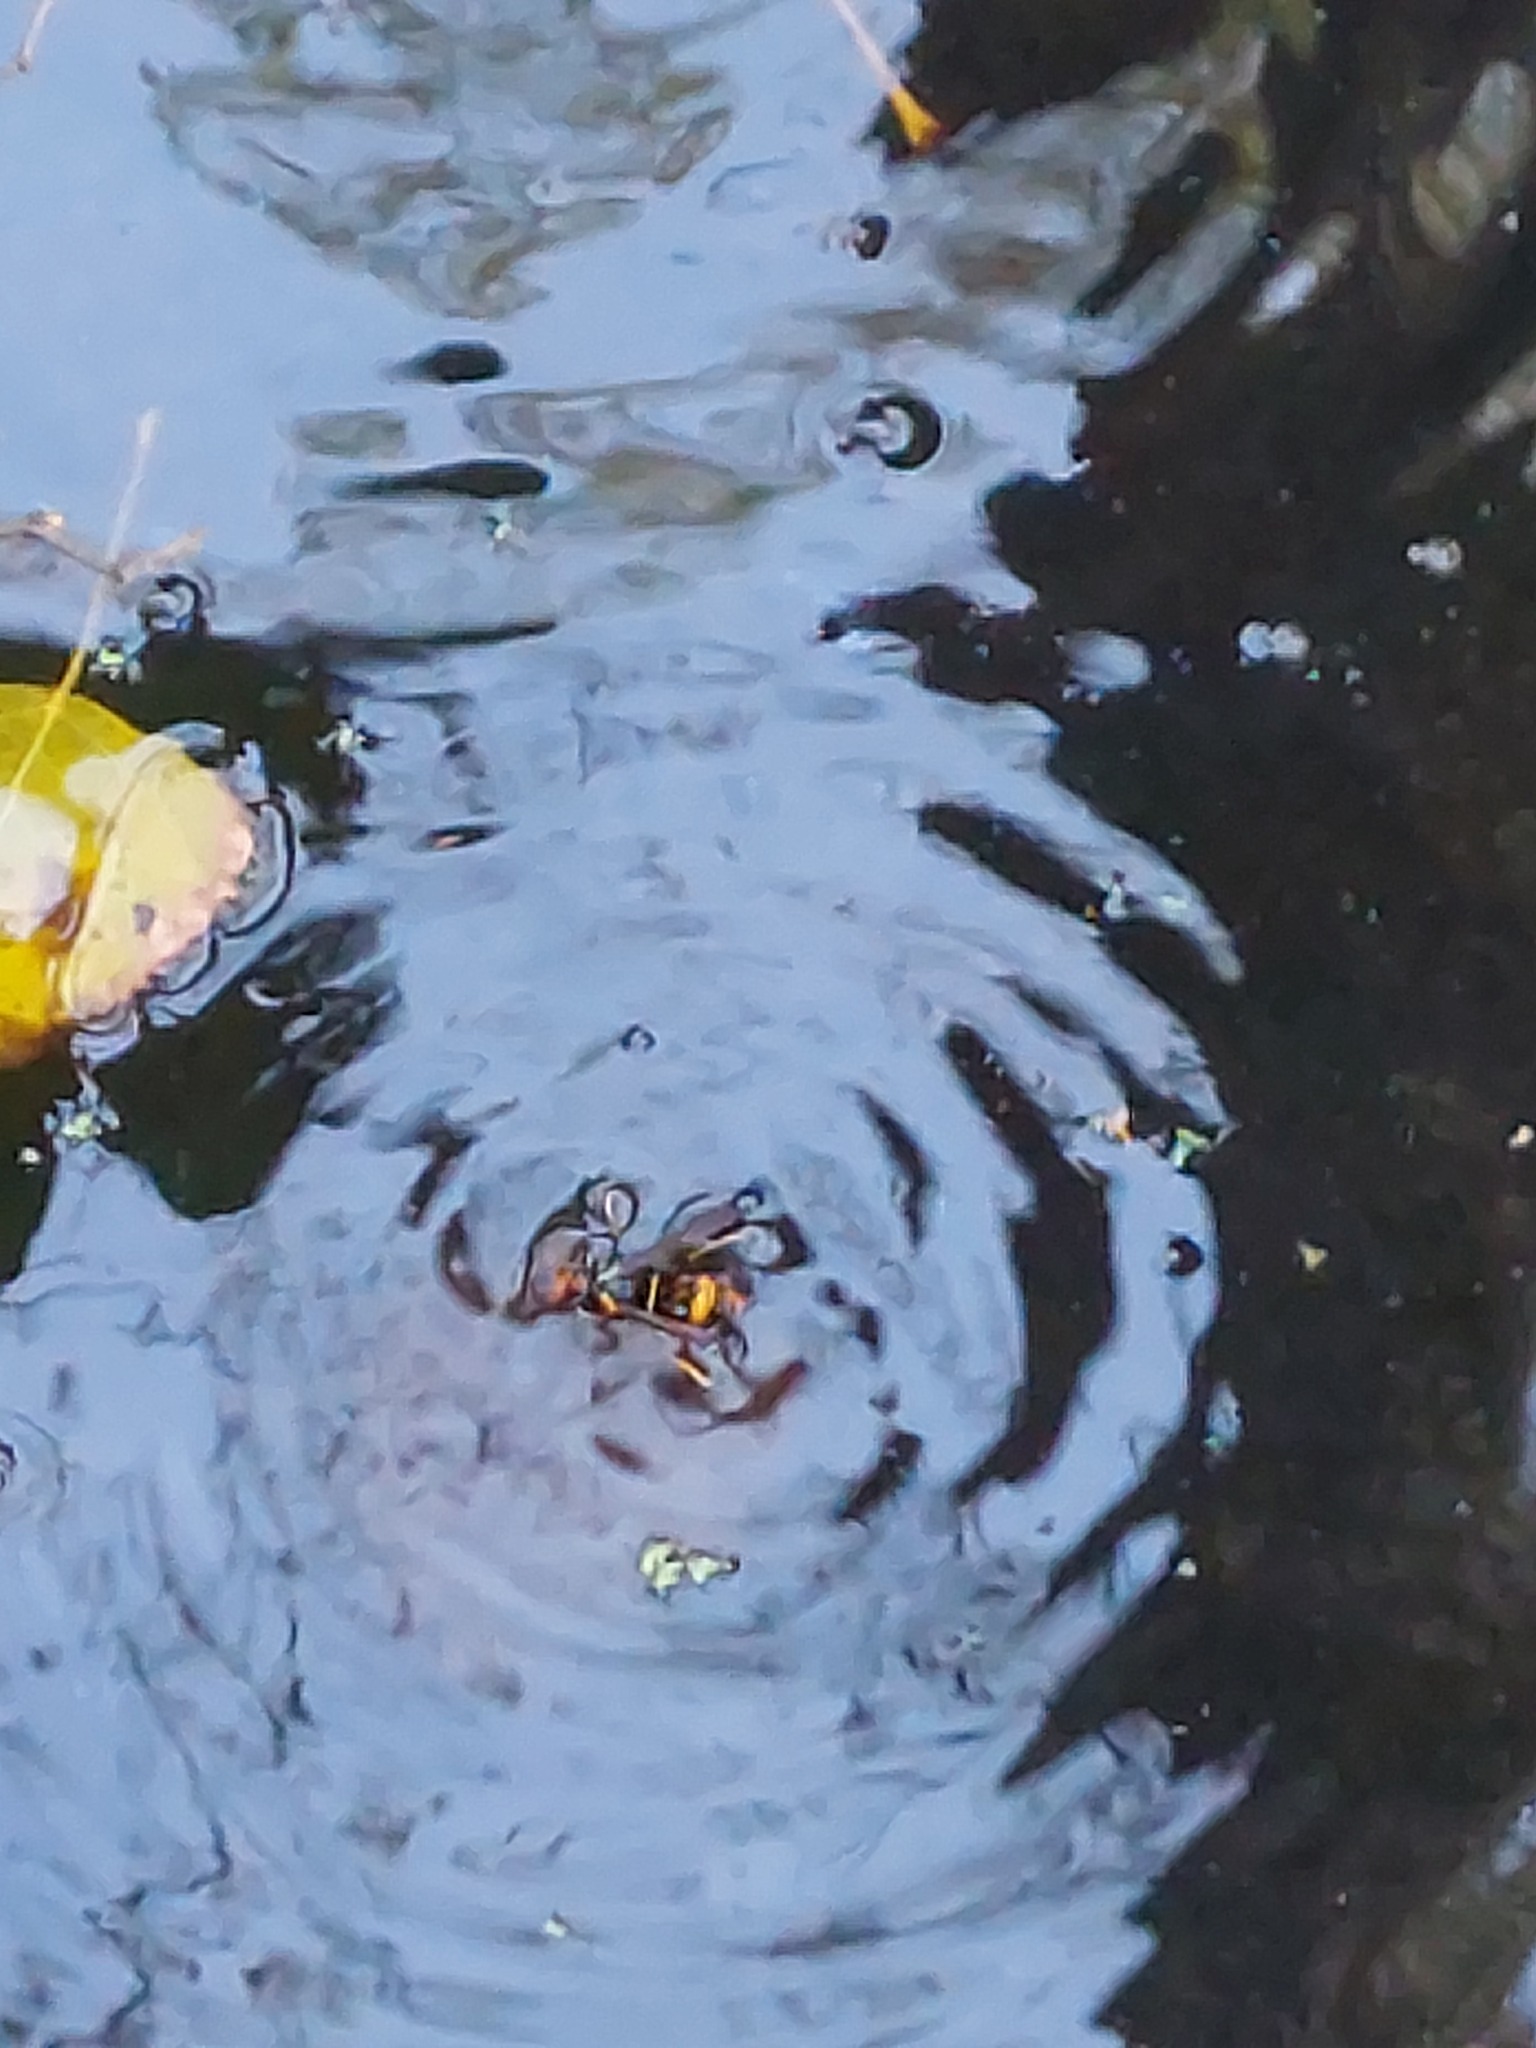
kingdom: Animalia
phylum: Arthropoda
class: Insecta
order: Hymenoptera
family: Vespidae
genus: Vespa
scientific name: Vespa velutina
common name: Asian hornet
